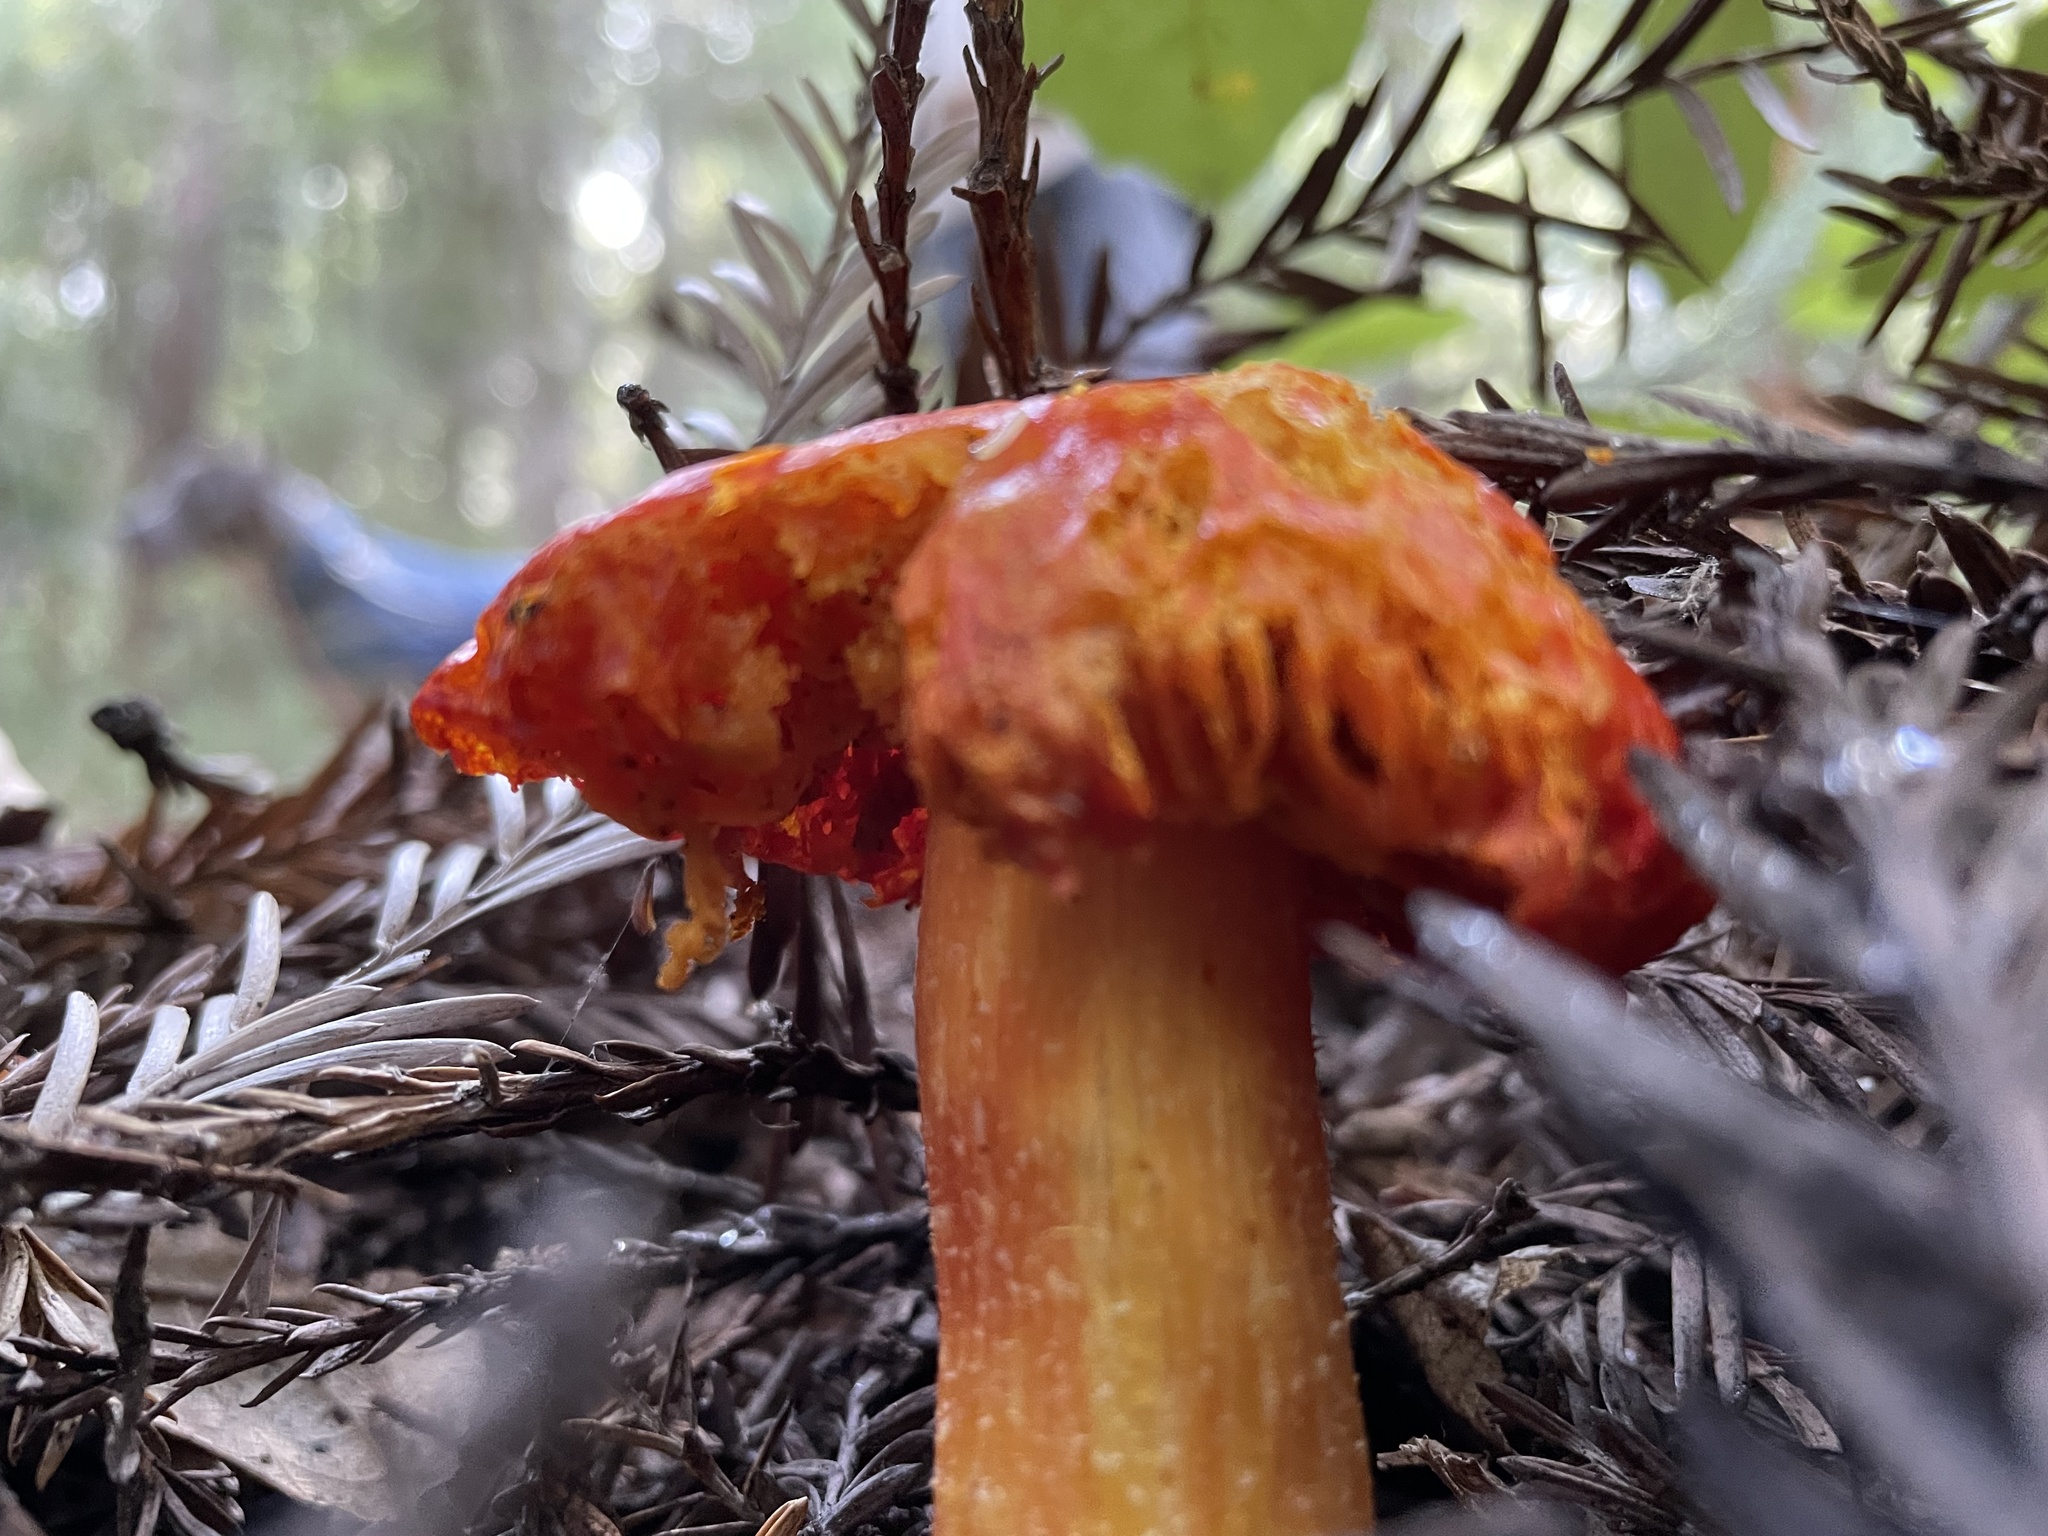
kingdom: Fungi
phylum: Basidiomycota
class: Agaricomycetes
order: Agaricales
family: Hygrophoraceae
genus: Hygrocybe
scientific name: Hygrocybe laetissima
